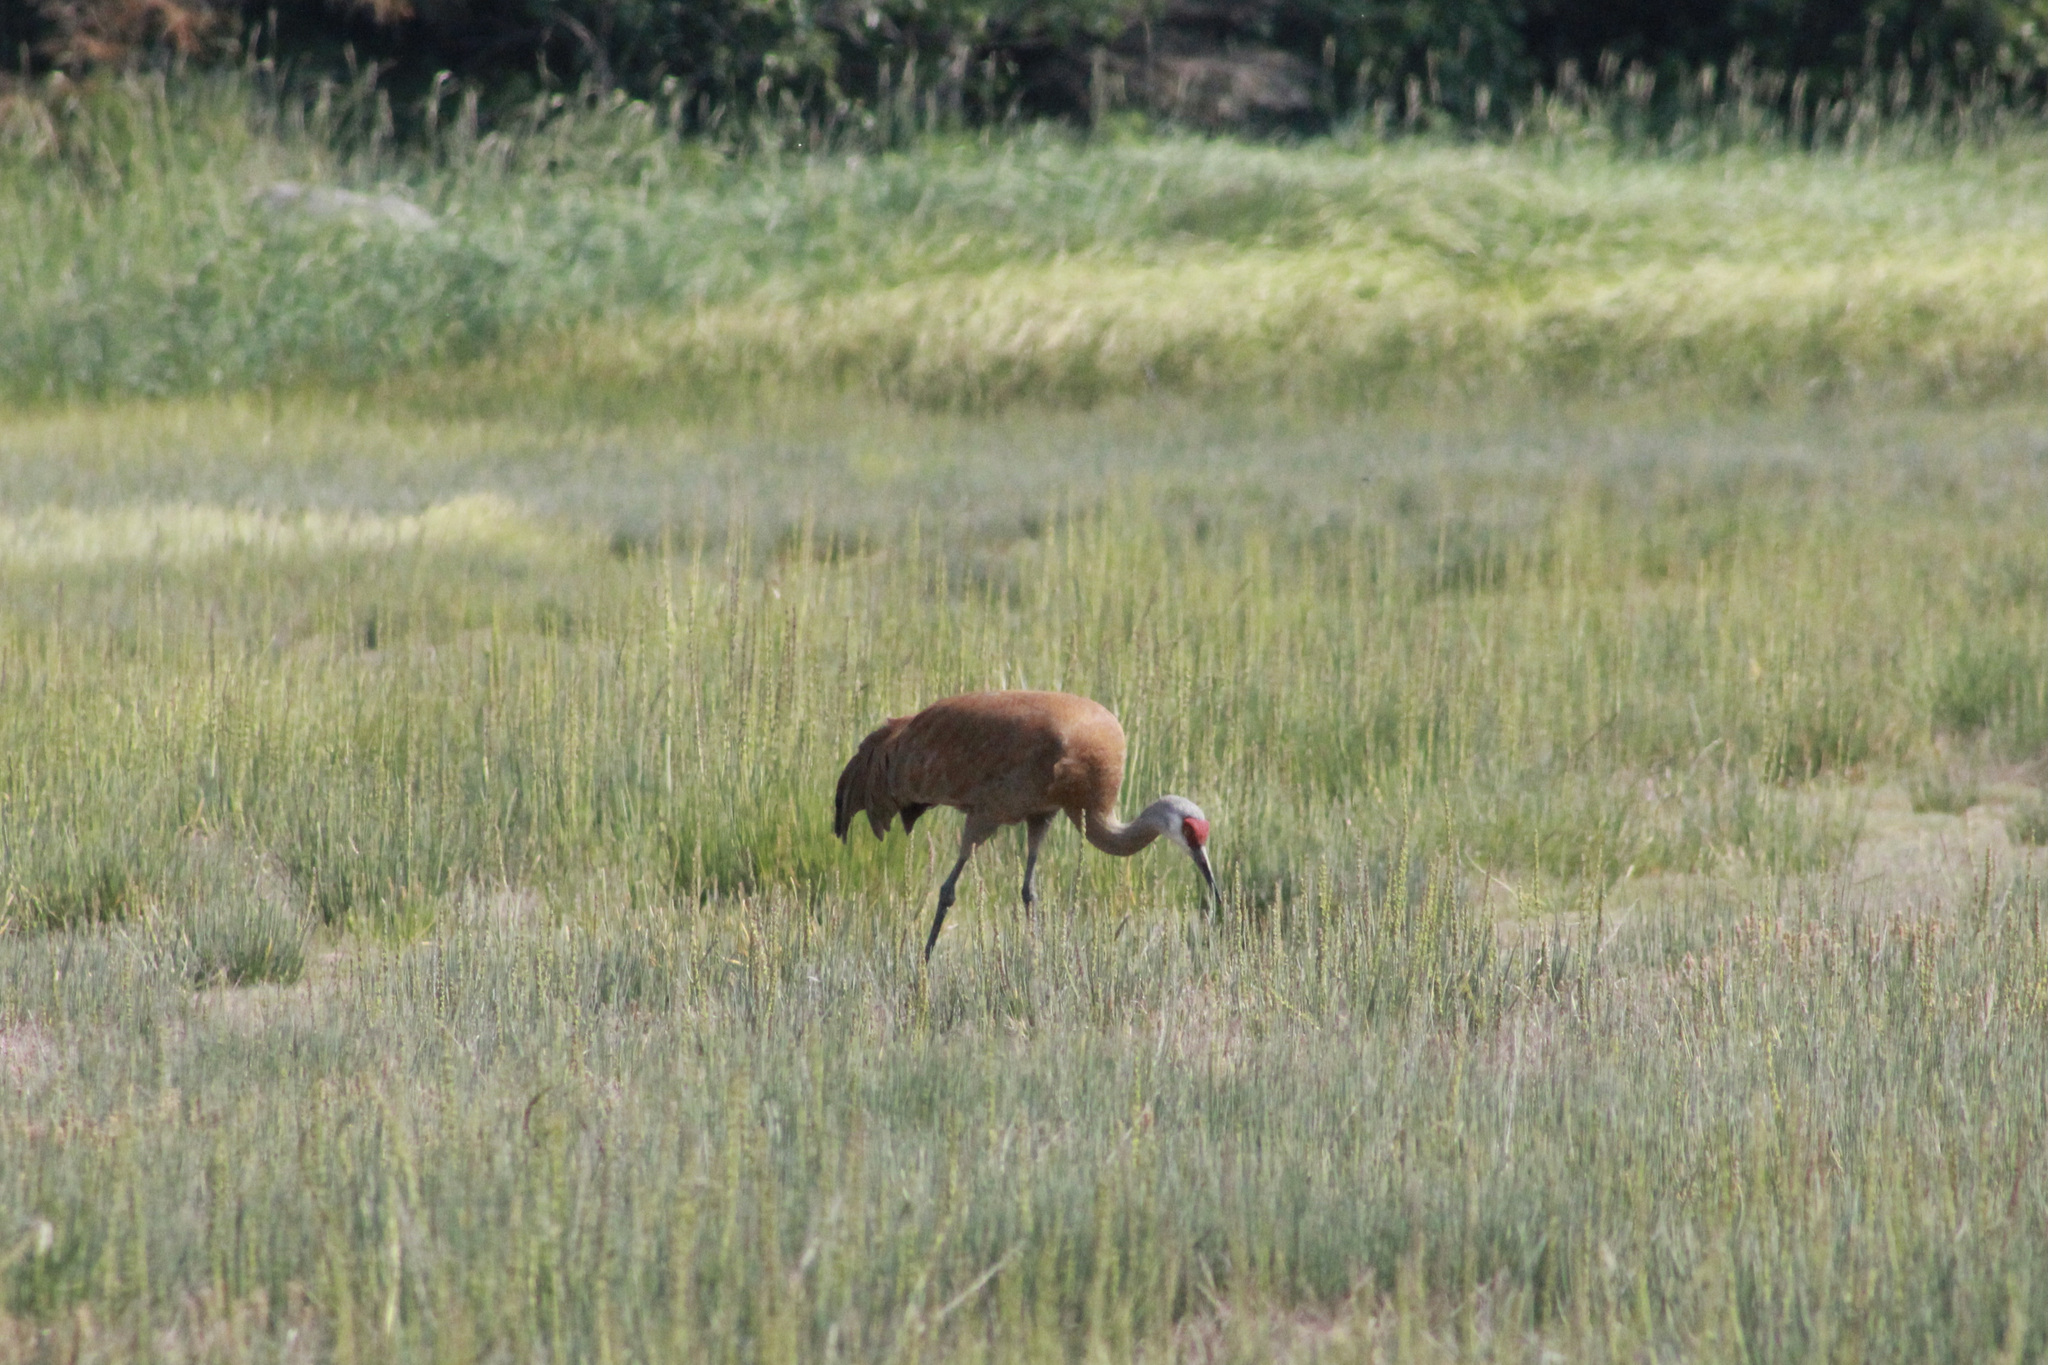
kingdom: Animalia
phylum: Chordata
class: Aves
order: Gruiformes
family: Gruidae
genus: Grus
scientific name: Grus canadensis
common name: Sandhill crane
